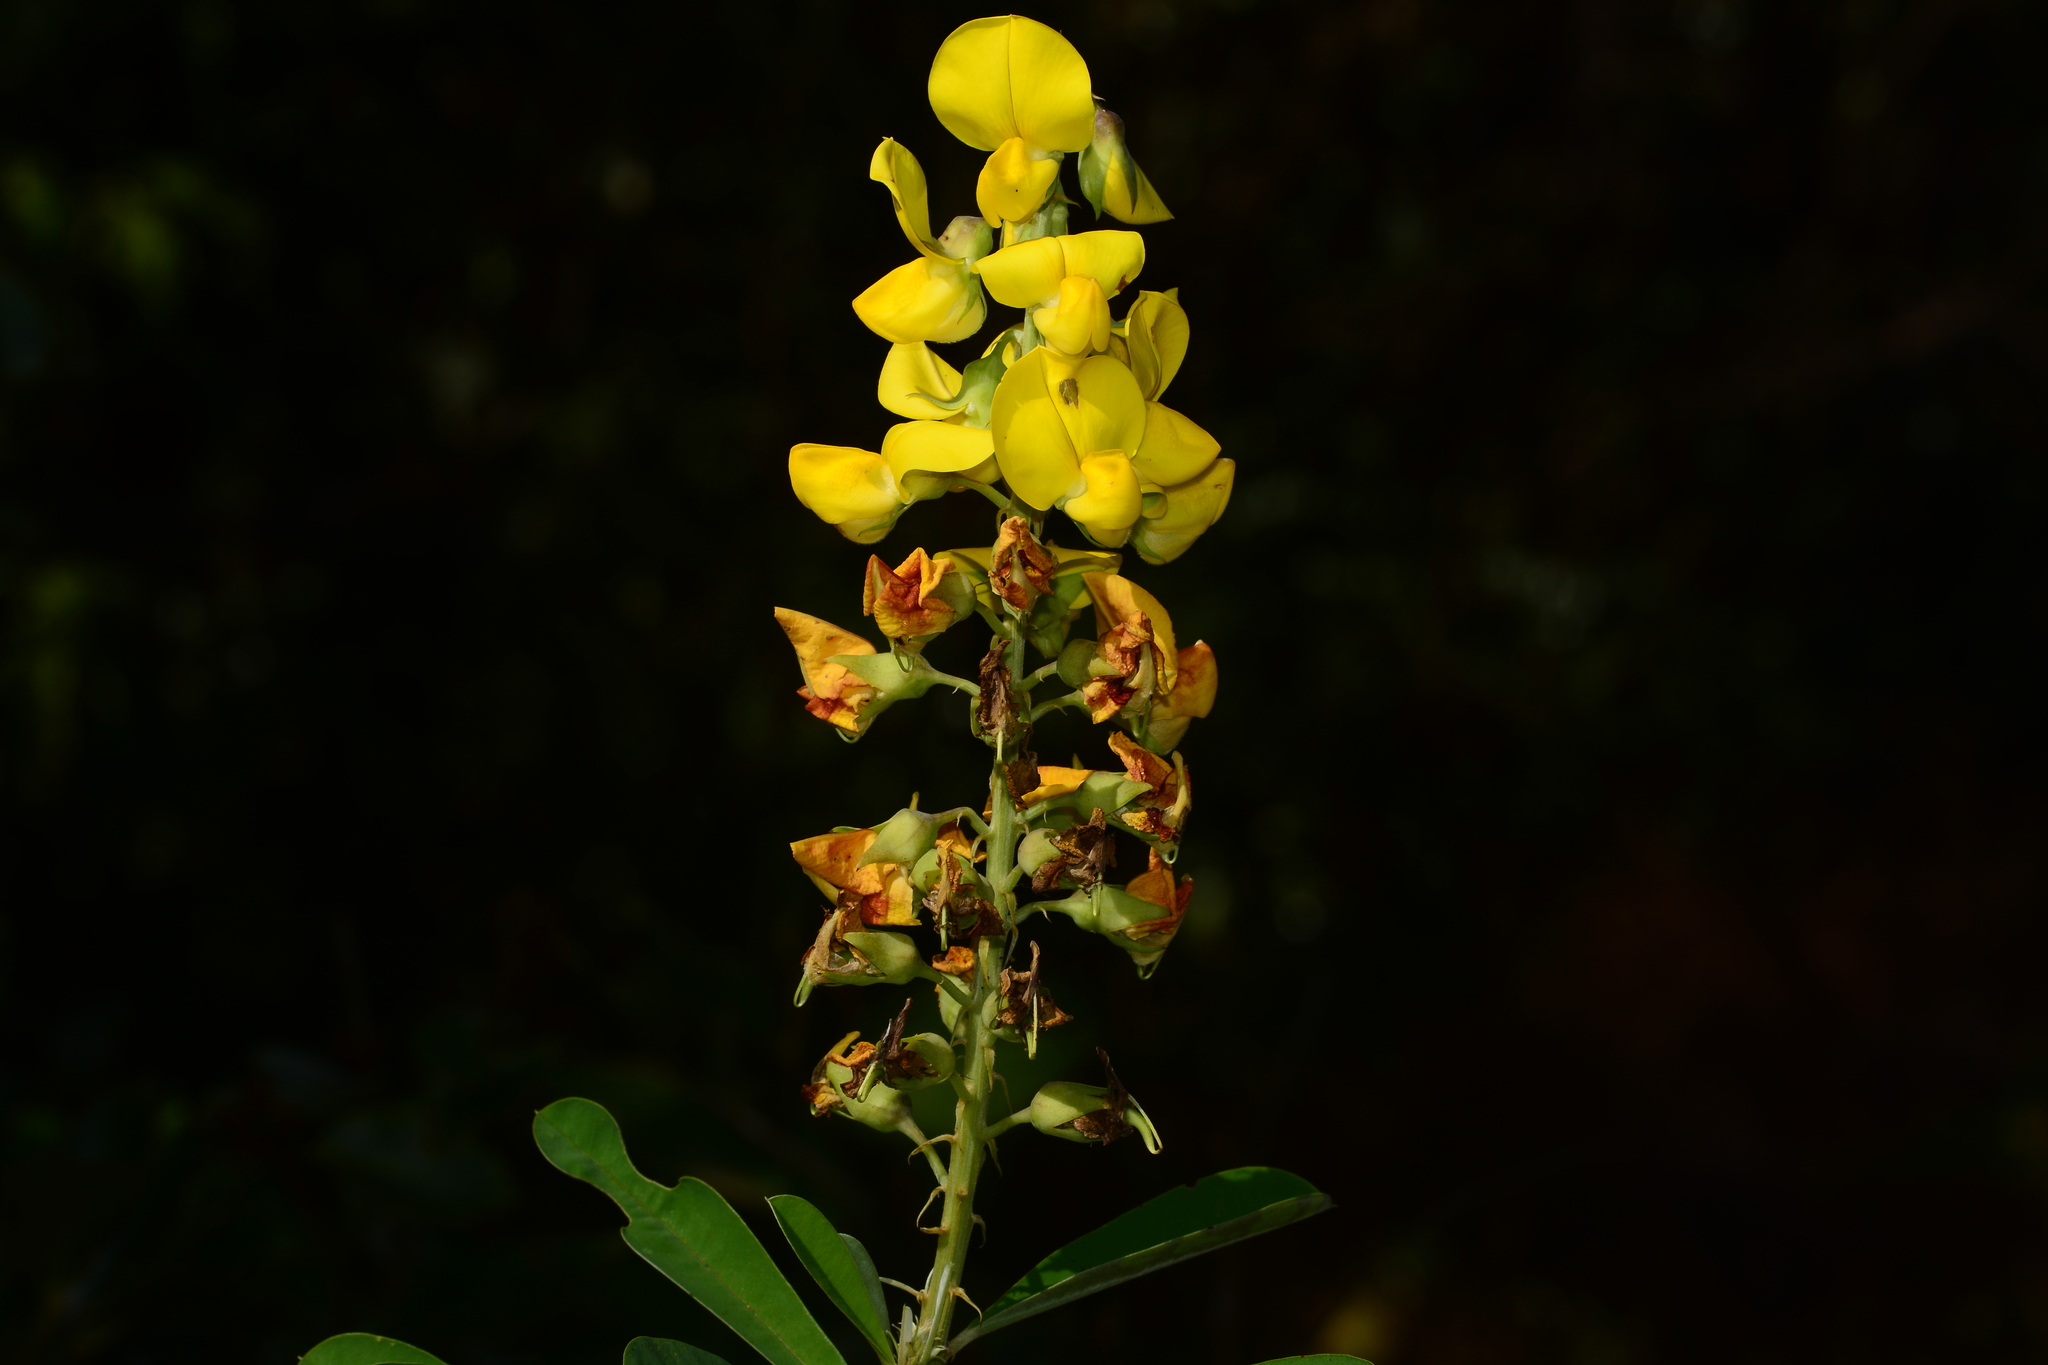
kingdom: Plantae
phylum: Tracheophyta
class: Magnoliopsida
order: Fabales
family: Fabaceae
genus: Crotalaria
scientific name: Crotalaria spectabilis
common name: Showy rattlebox
